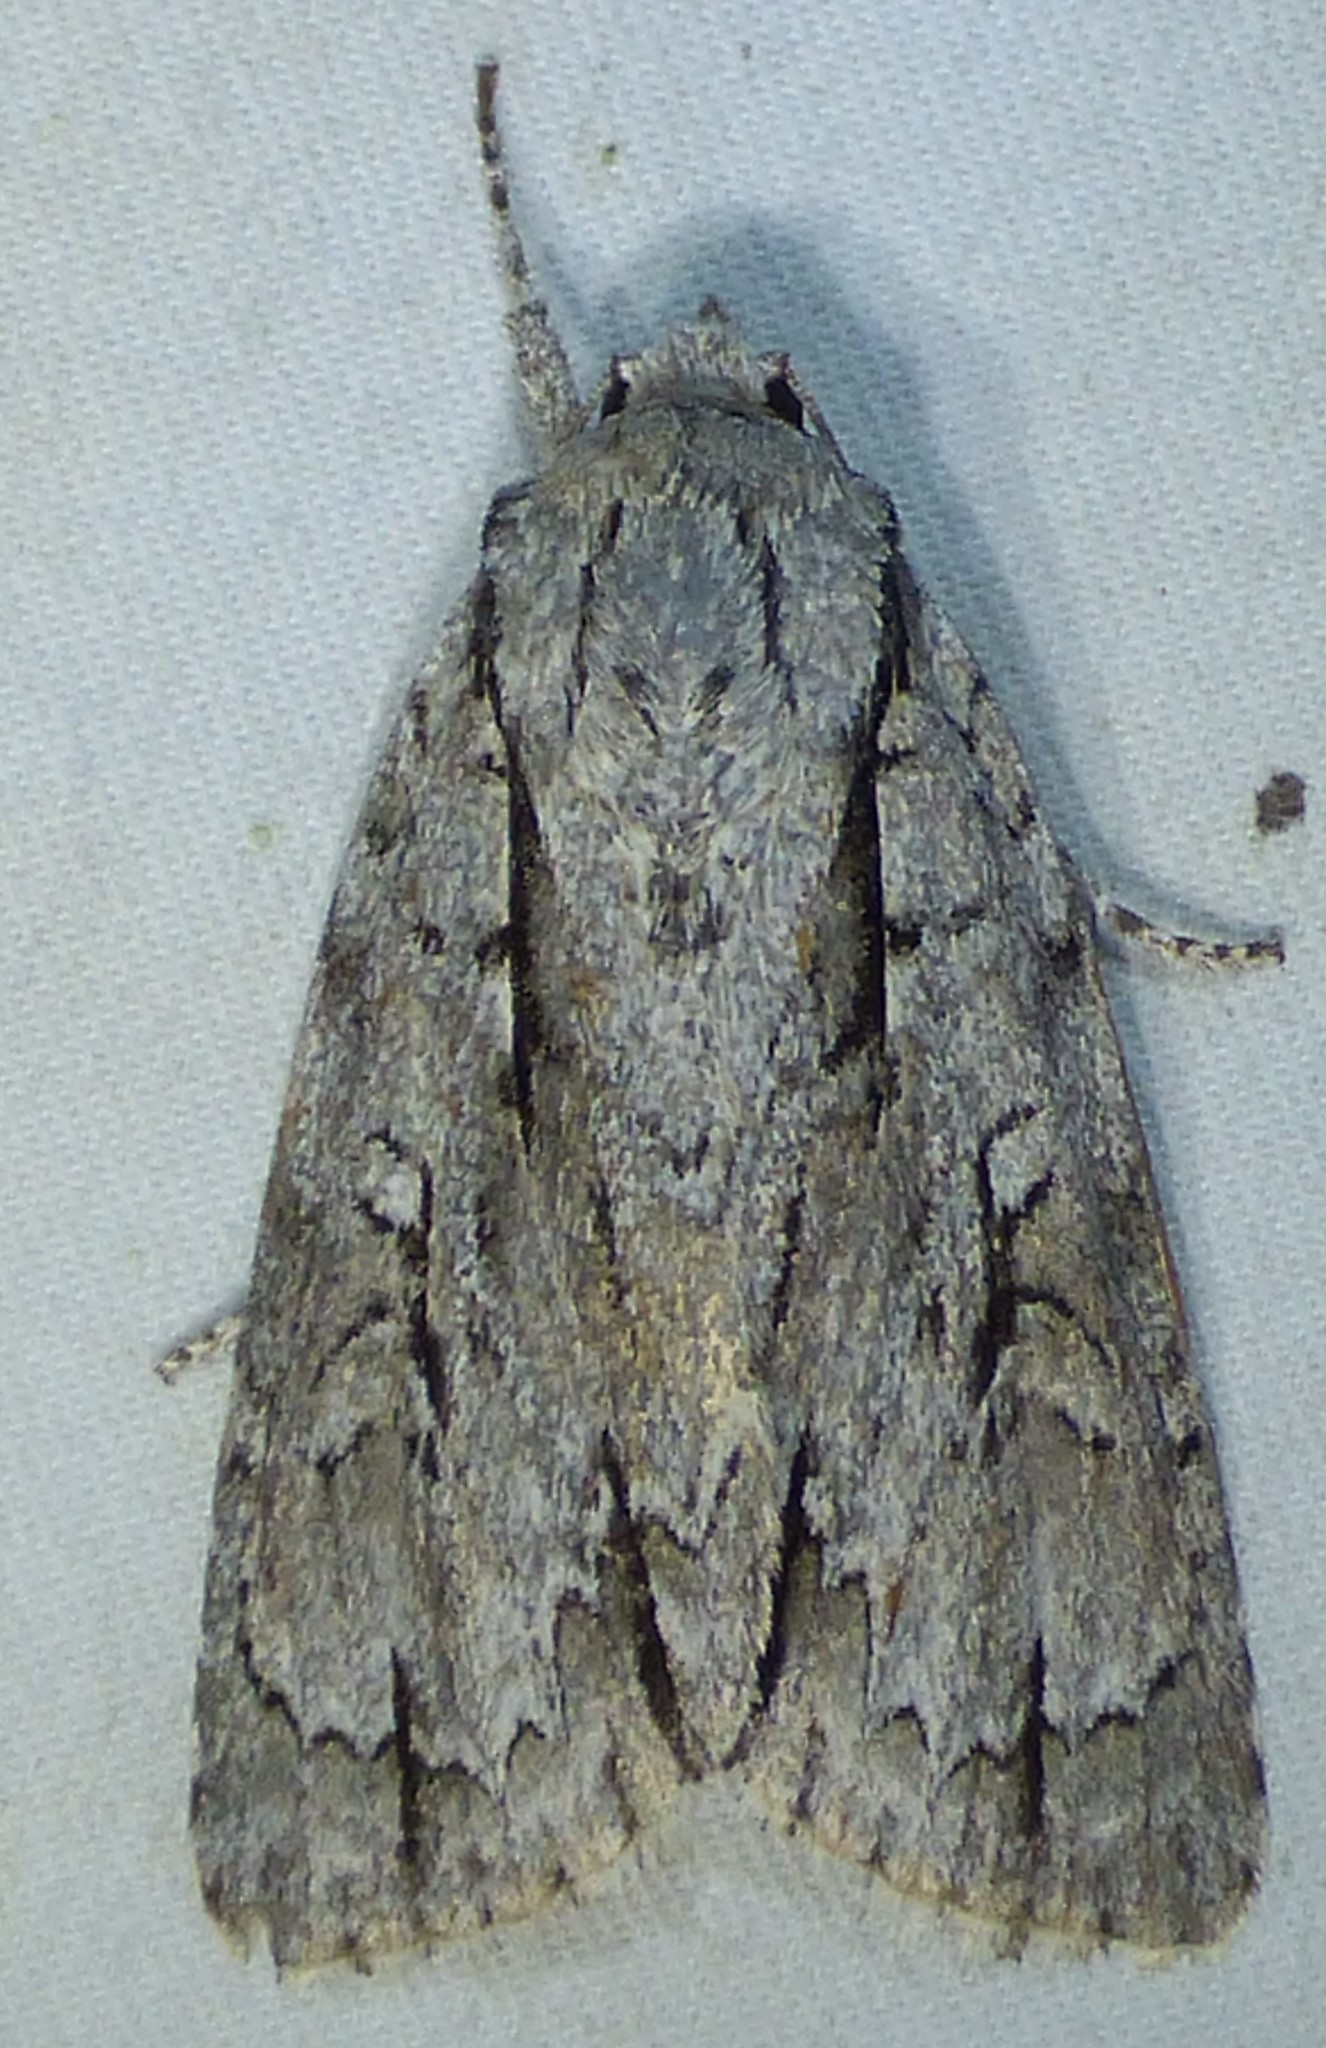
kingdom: Animalia
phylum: Arthropoda
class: Insecta
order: Lepidoptera
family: Noctuidae
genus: Acronicta
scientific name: Acronicta lobeliae
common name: Greater oak dagger
